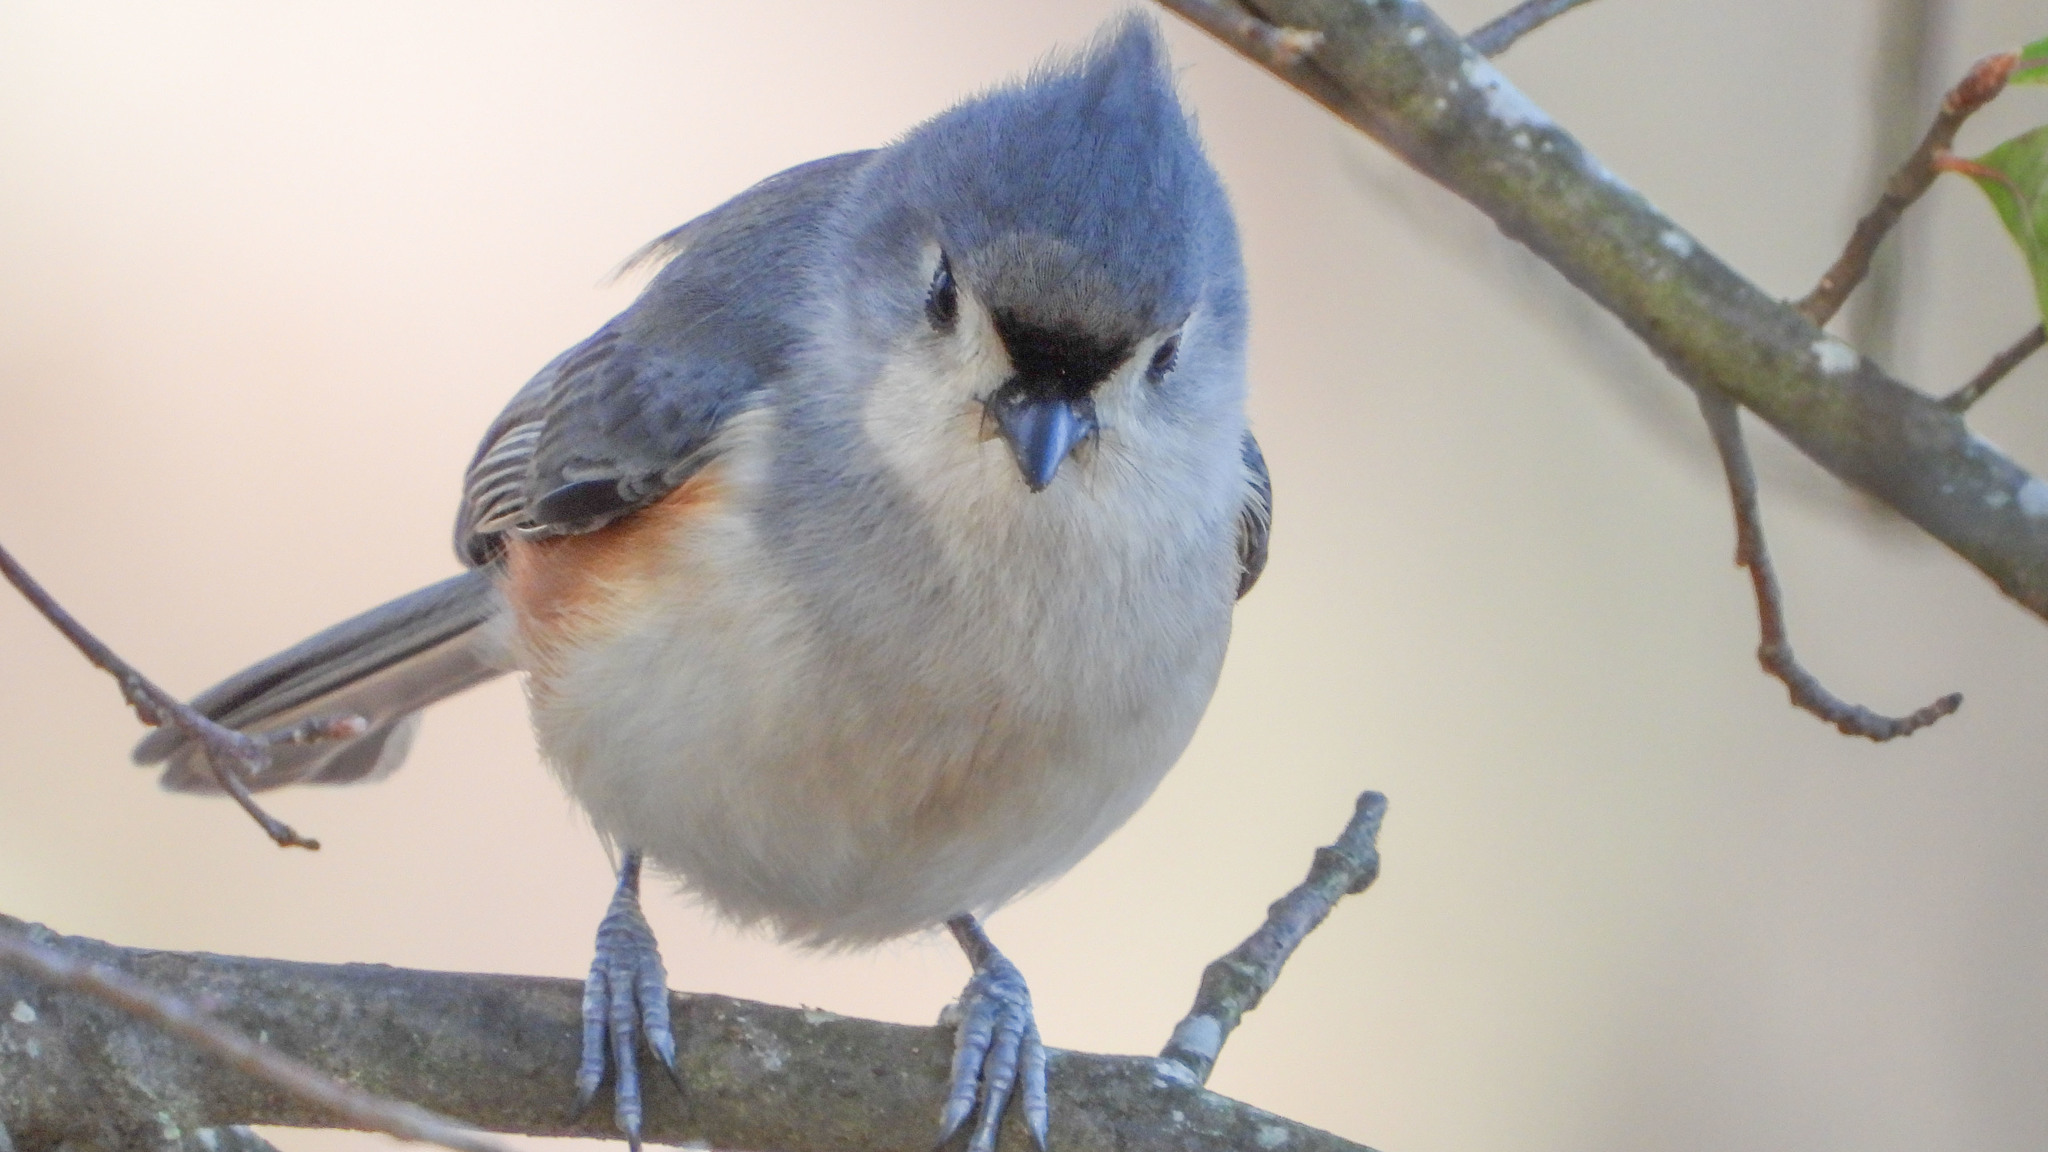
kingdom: Animalia
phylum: Chordata
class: Aves
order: Passeriformes
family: Paridae
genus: Baeolophus
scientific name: Baeolophus bicolor
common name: Tufted titmouse
